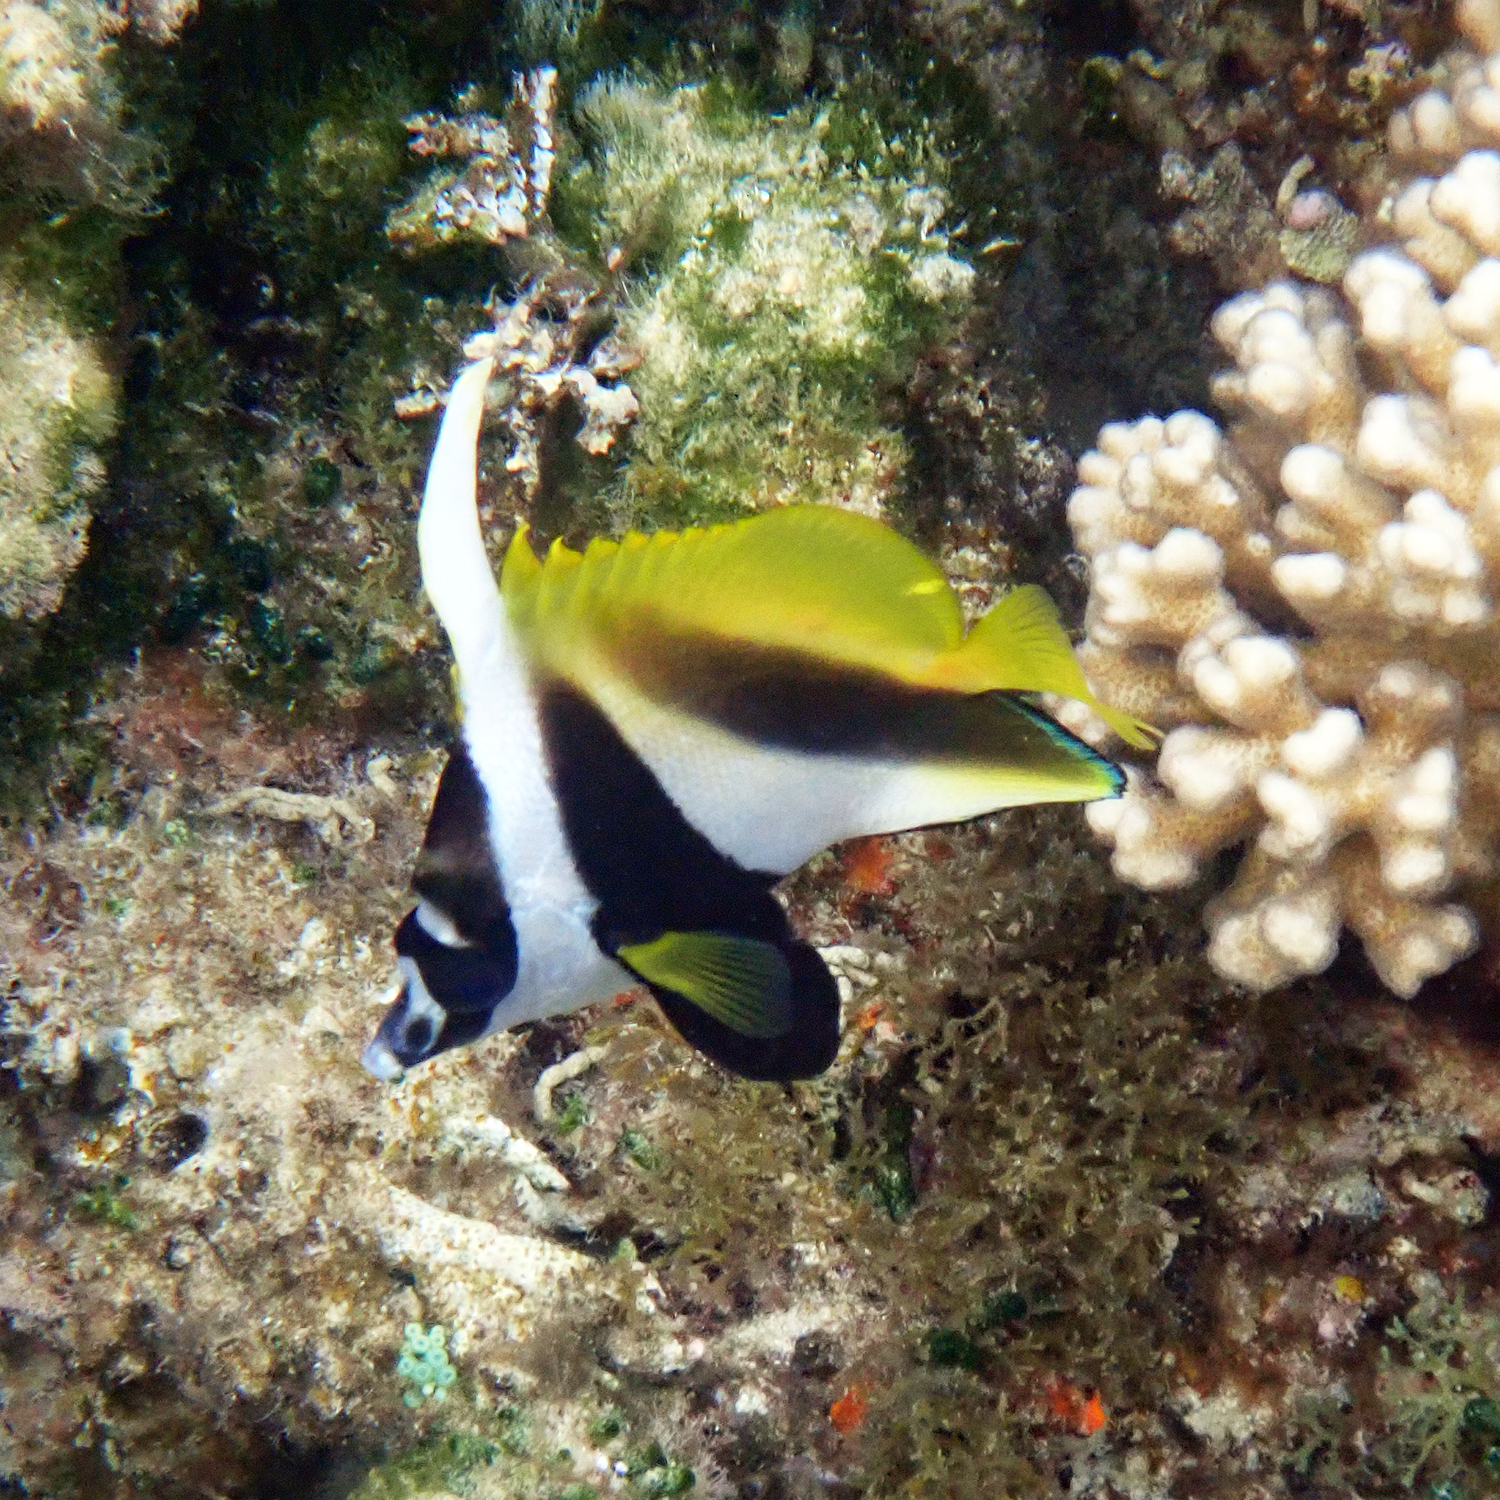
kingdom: Animalia
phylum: Chordata
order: Perciformes
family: Chaetodontidae
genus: Heniochus
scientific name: Heniochus monoceros
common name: Masked bannerfish
